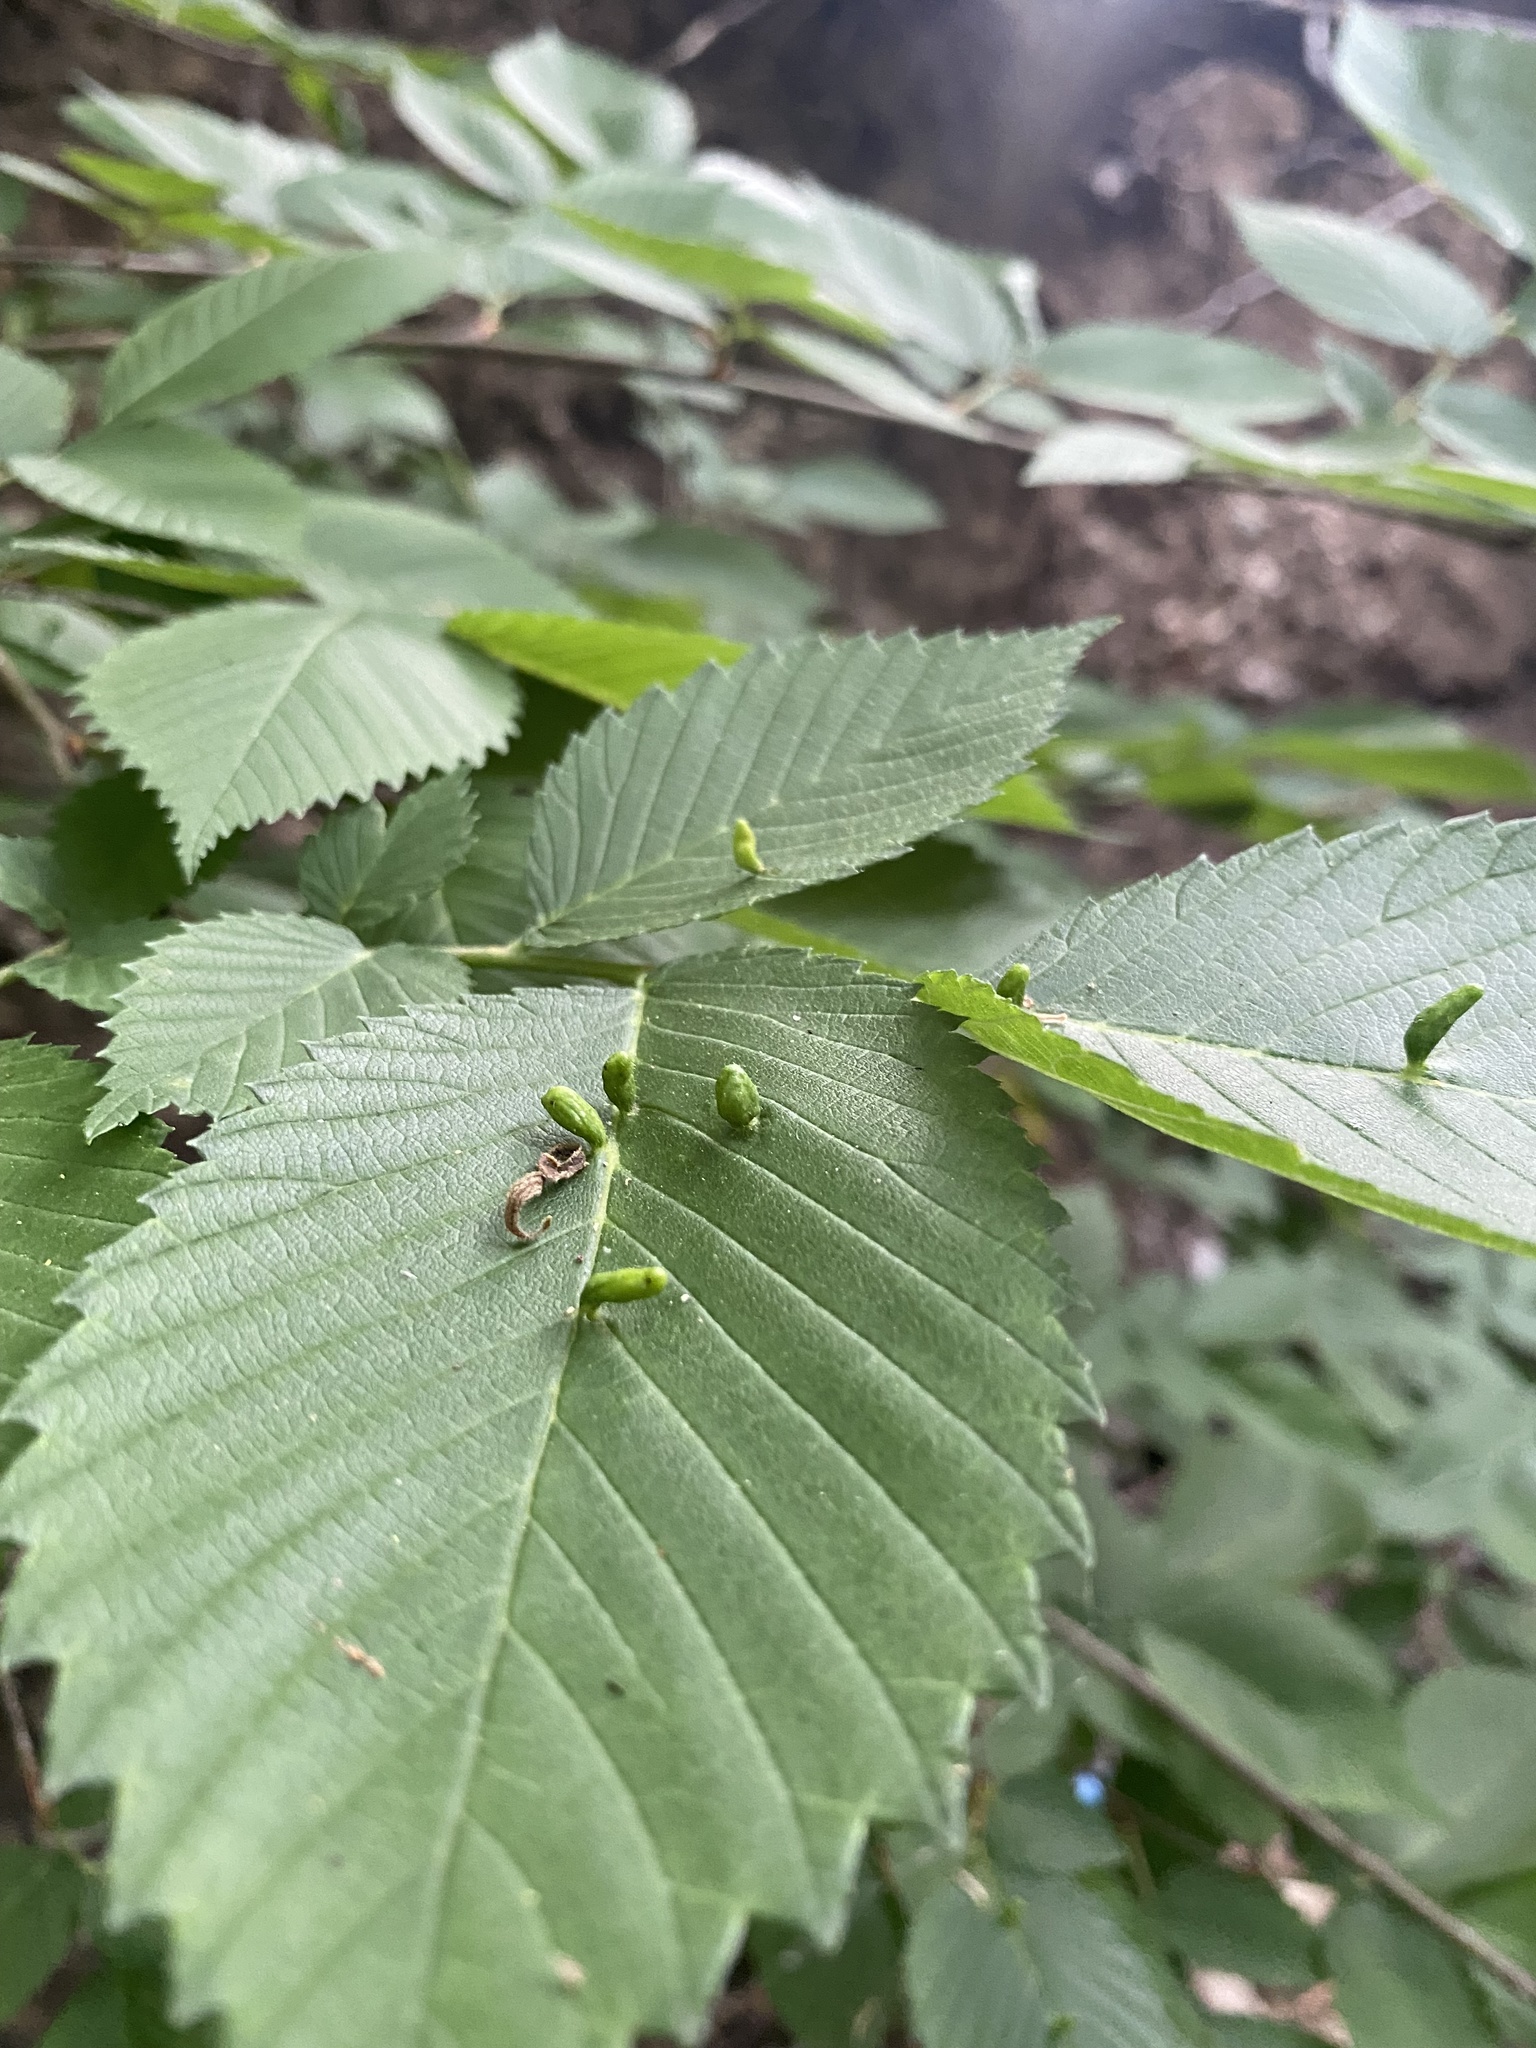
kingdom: Animalia
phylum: Arthropoda
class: Arachnida
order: Trombidiformes
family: Eriophyidae
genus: Aceria
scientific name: Aceria
